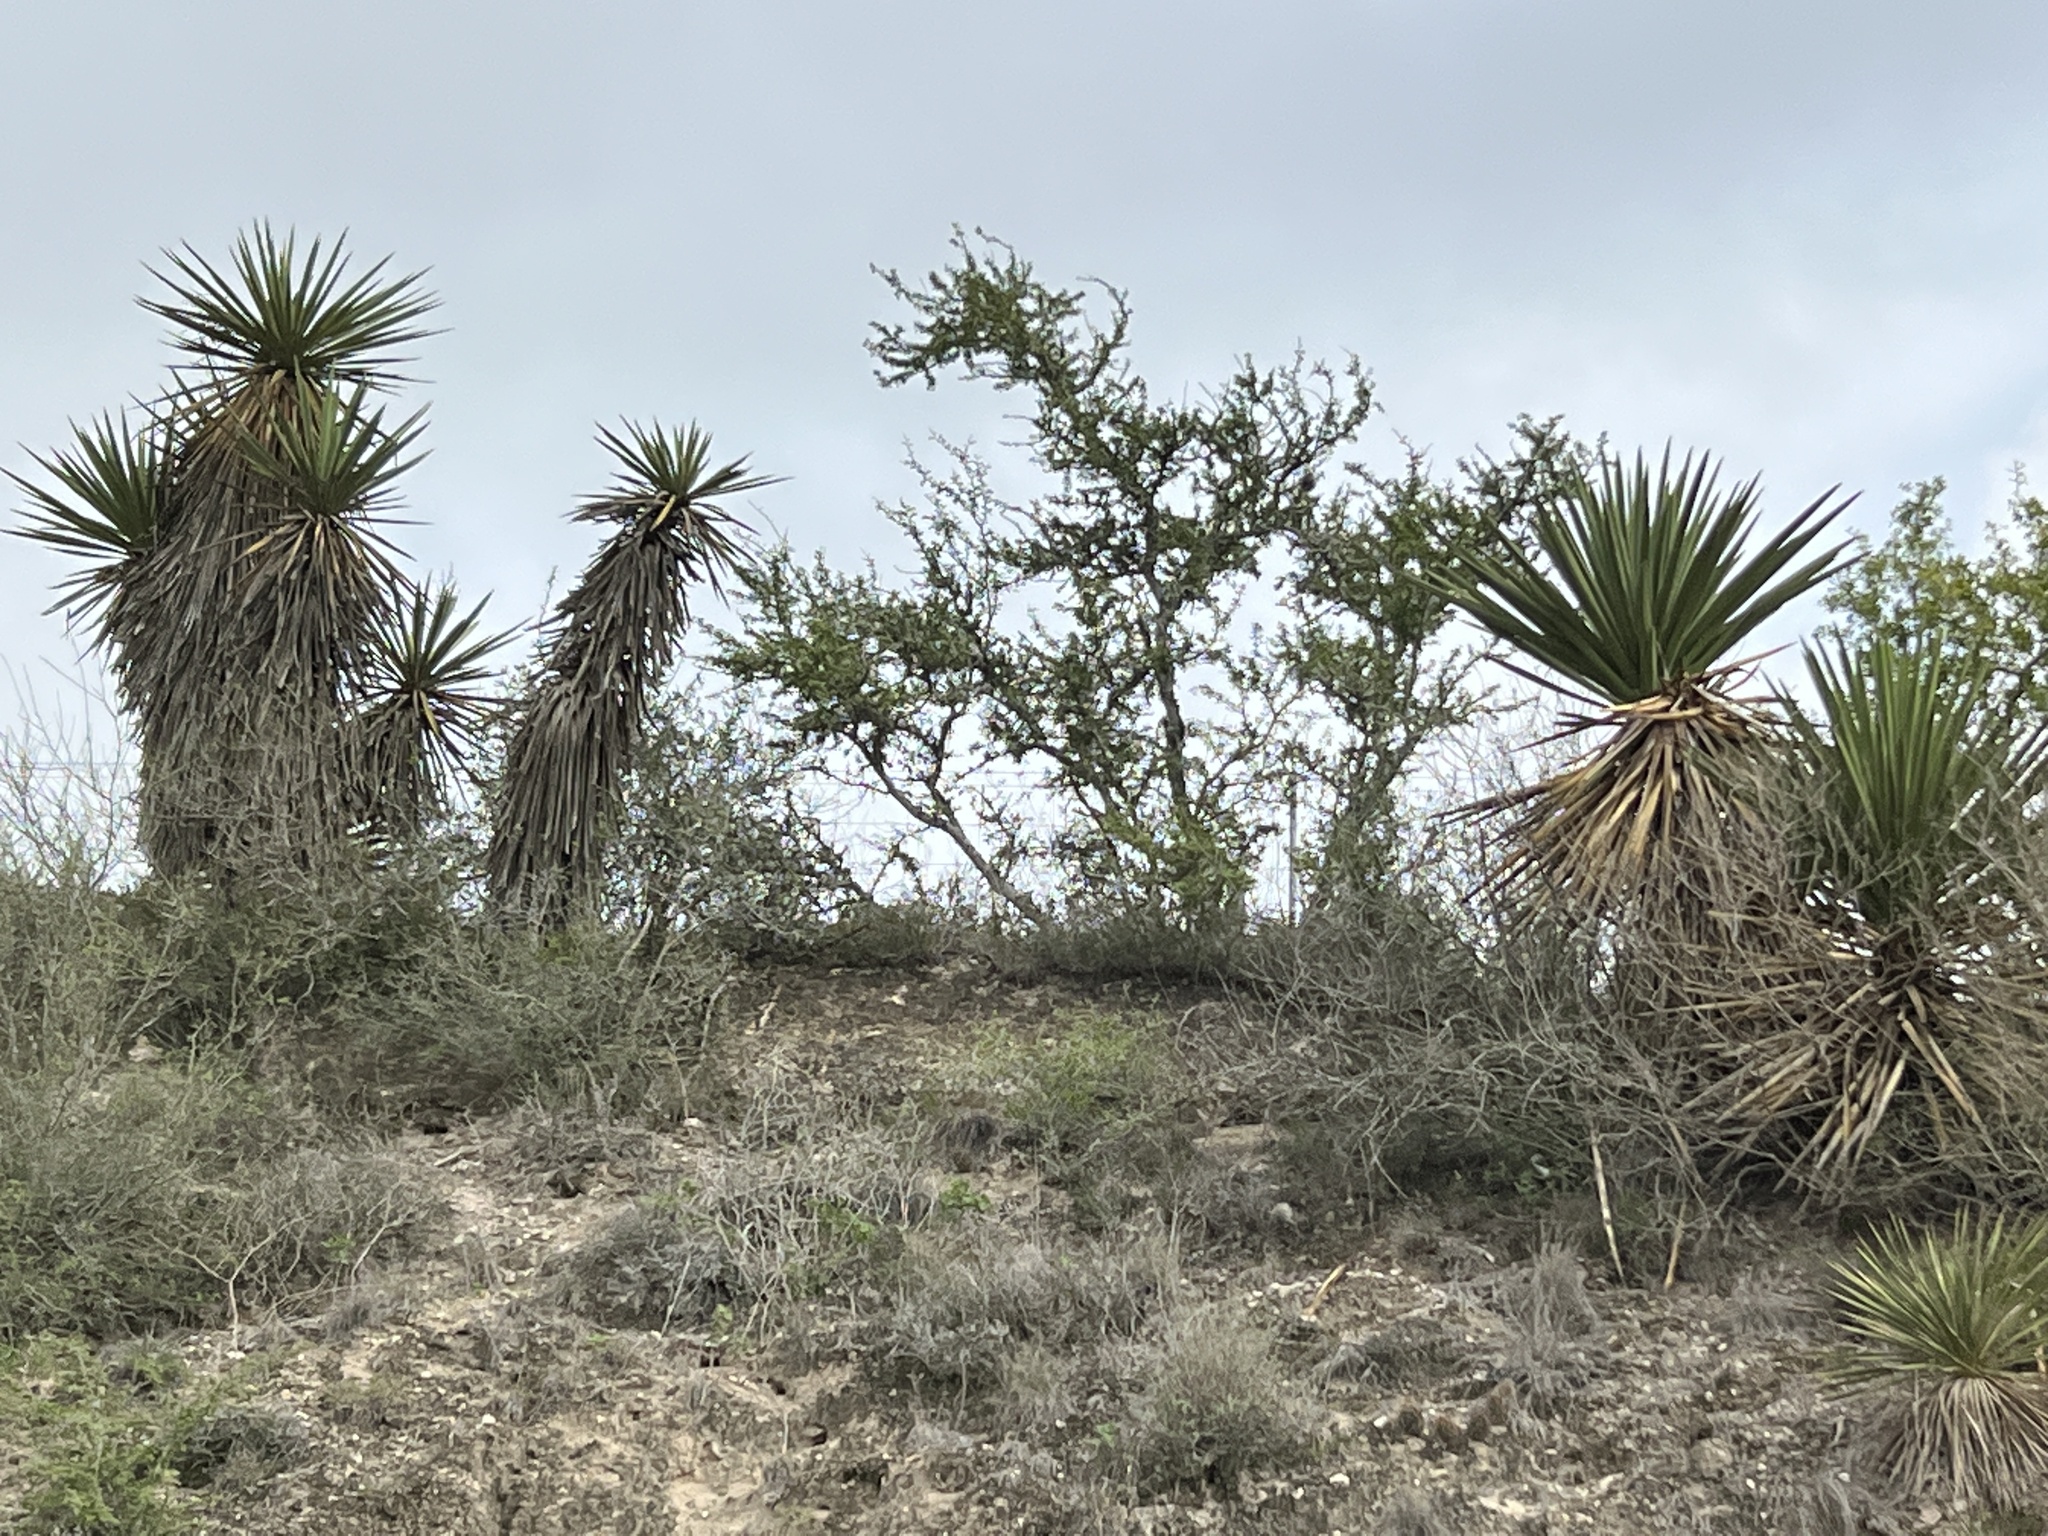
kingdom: Plantae
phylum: Tracheophyta
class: Liliopsida
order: Asparagales
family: Asparagaceae
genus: Yucca
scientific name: Yucca treculiana
